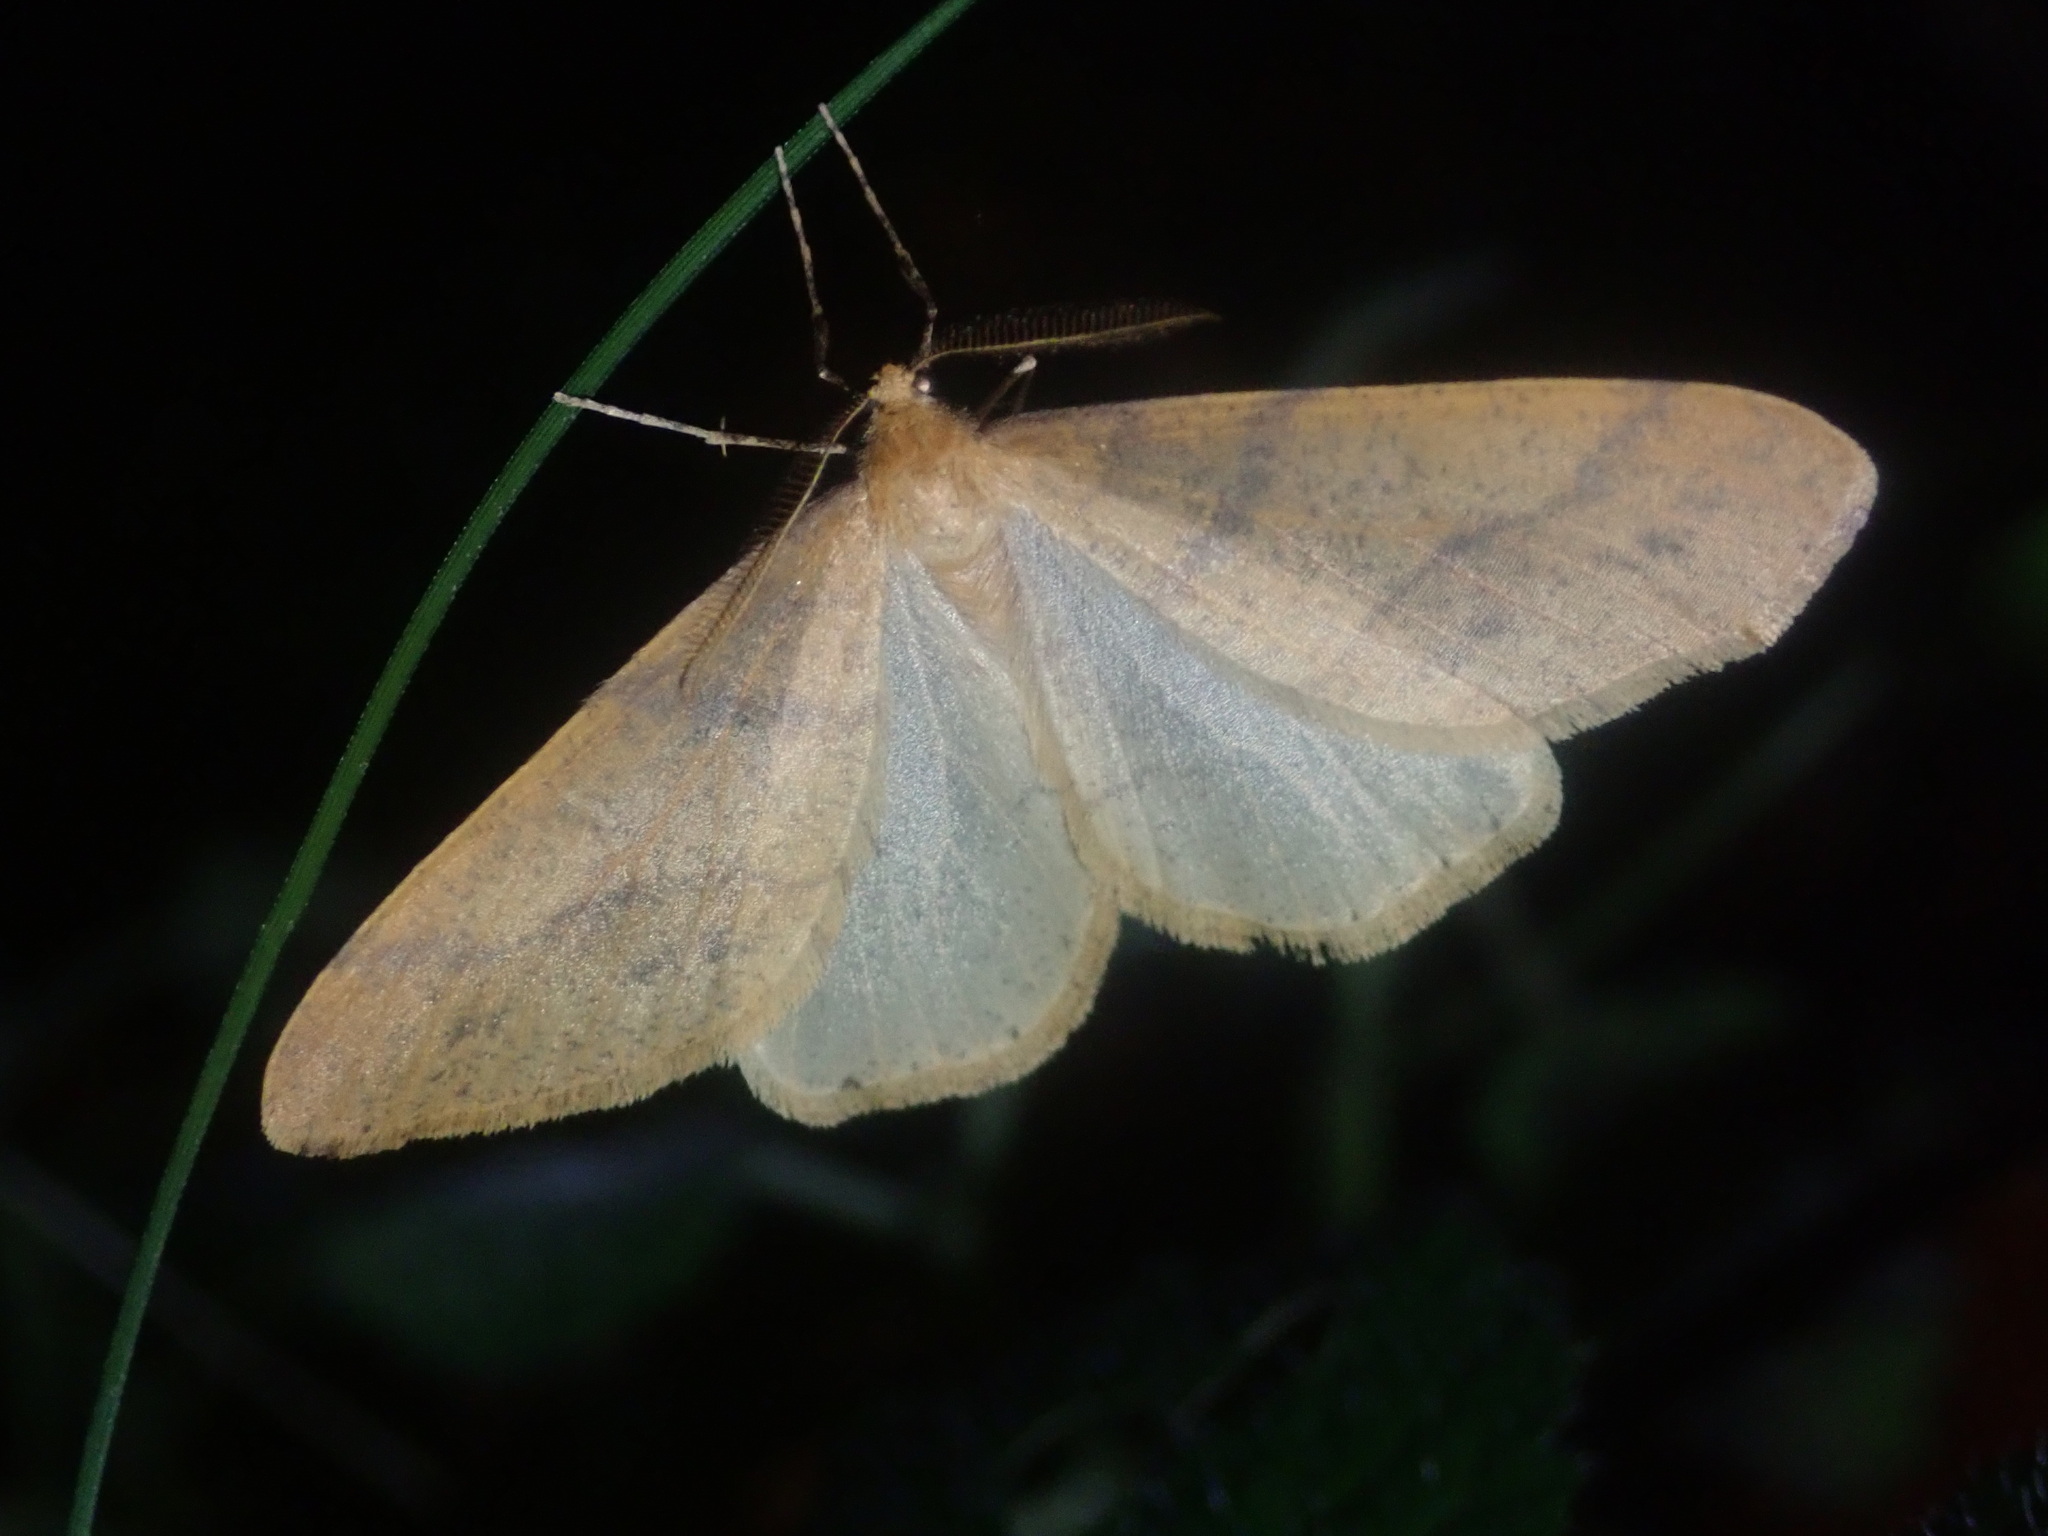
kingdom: Animalia
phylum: Arthropoda
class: Insecta
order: Lepidoptera
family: Geometridae
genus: Agriopis
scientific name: Agriopis aurantiaria
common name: Scarce umber
